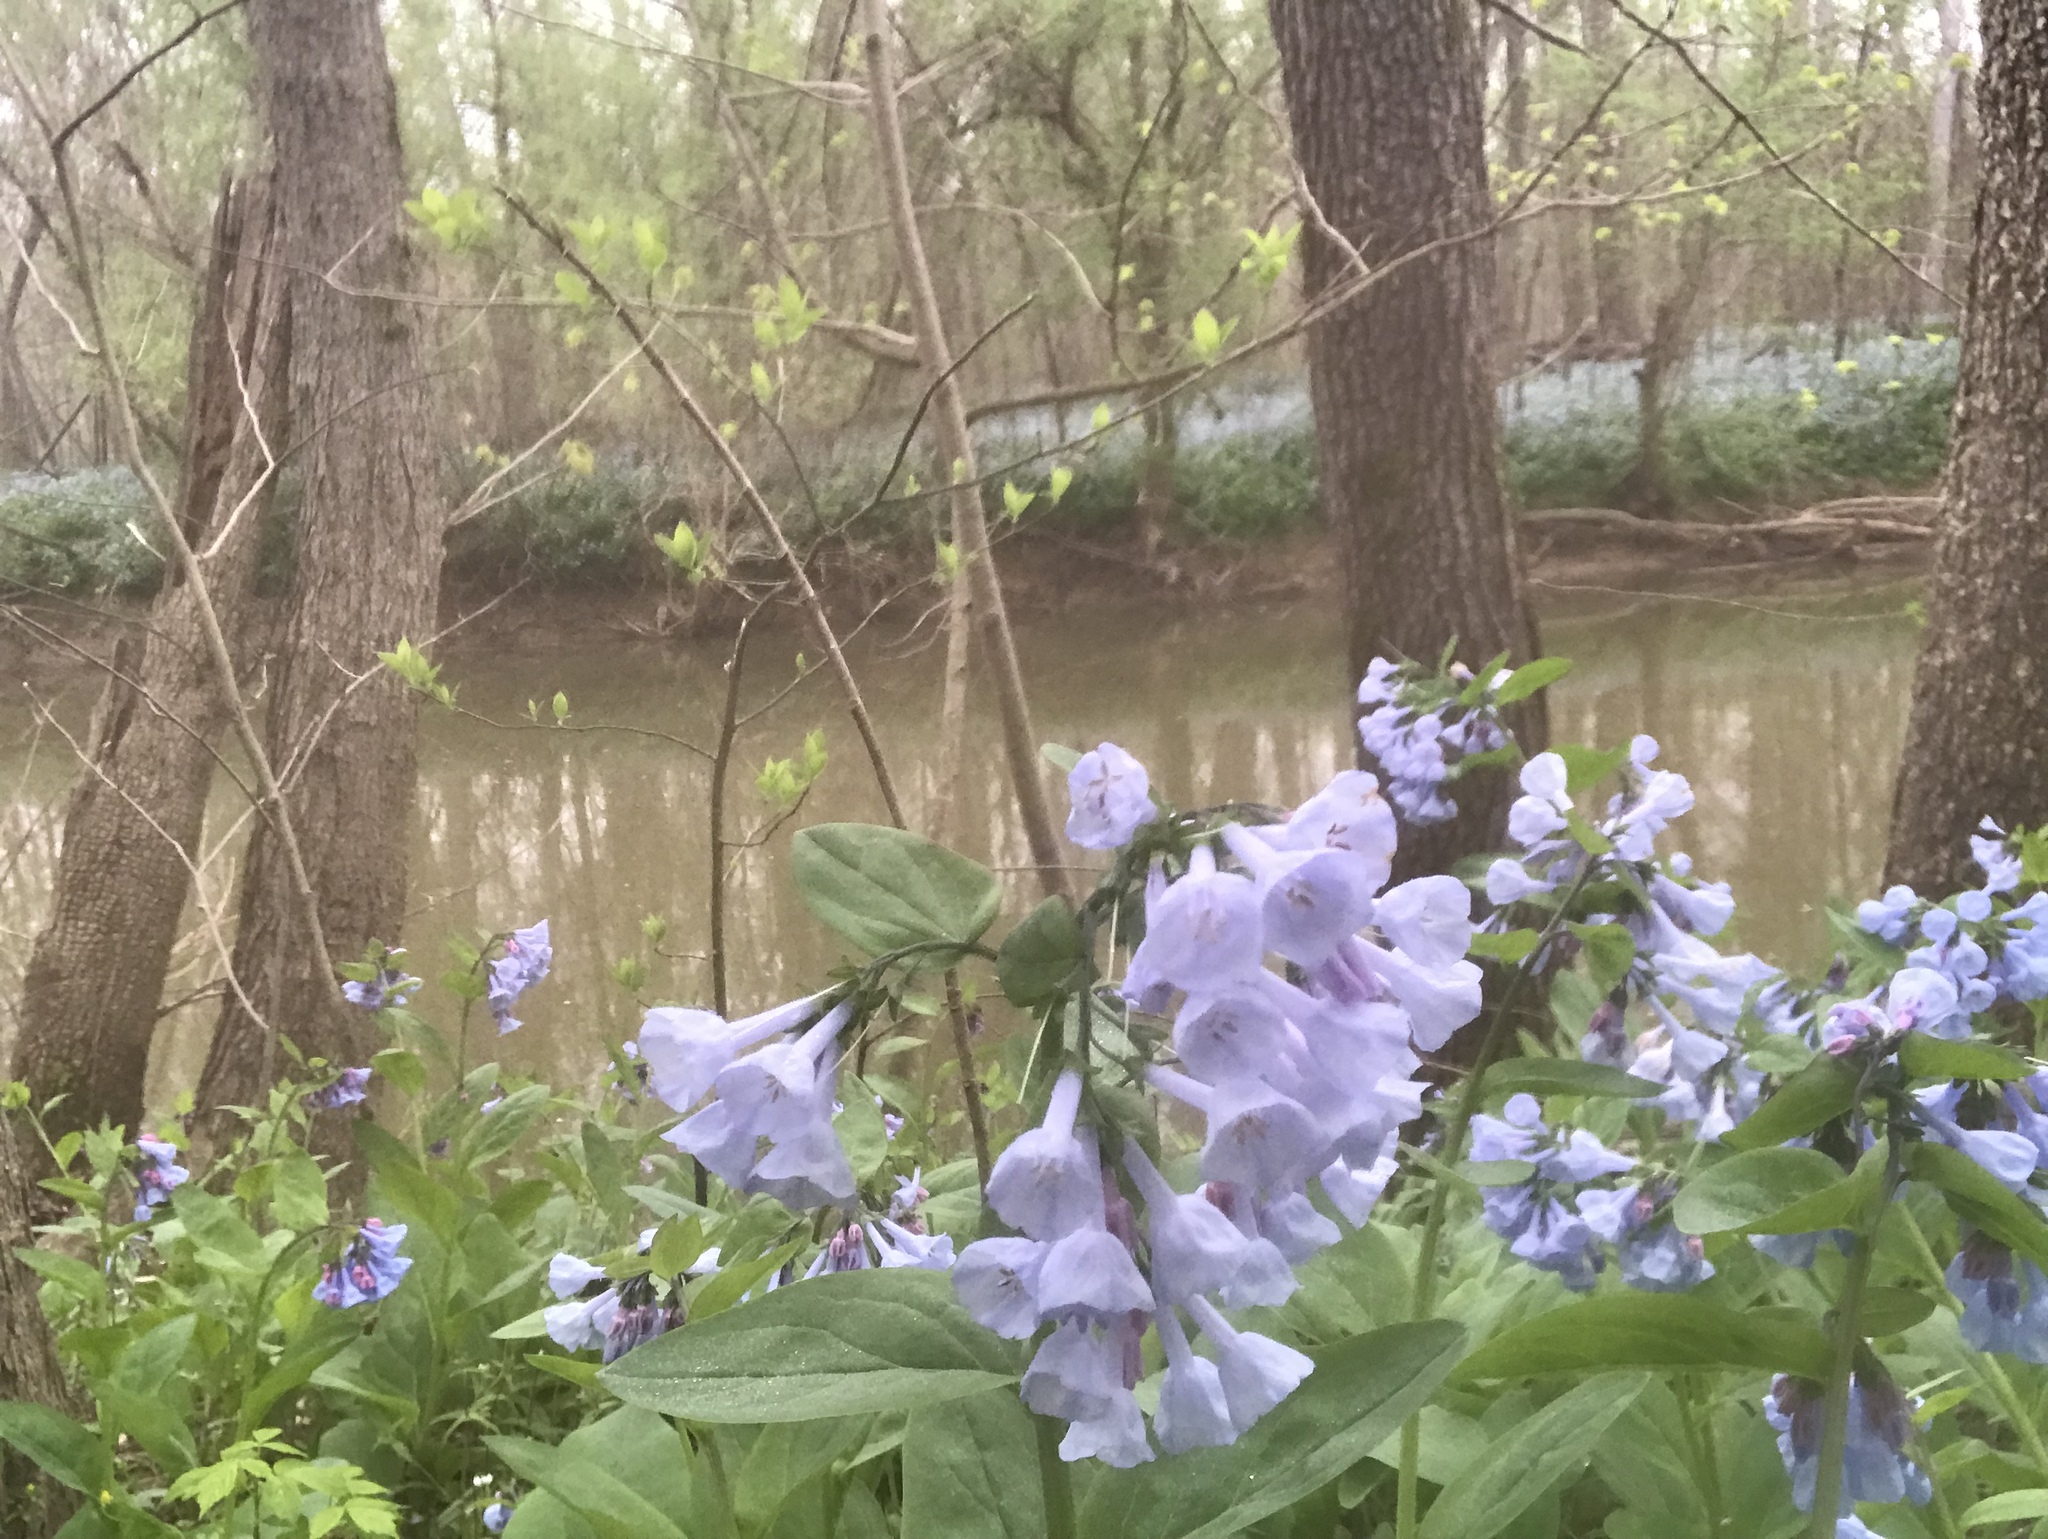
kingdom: Plantae
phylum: Tracheophyta
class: Magnoliopsida
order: Boraginales
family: Boraginaceae
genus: Mertensia
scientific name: Mertensia virginica
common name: Virginia bluebells
